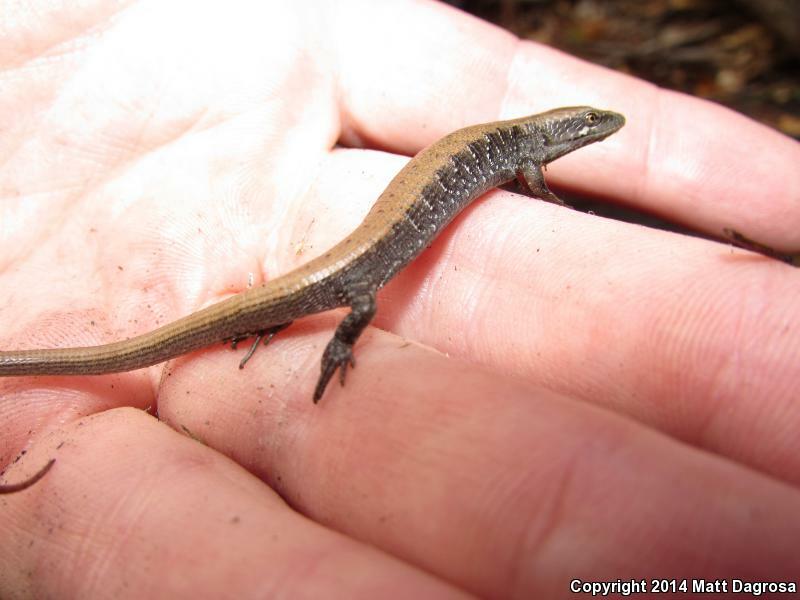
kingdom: Animalia
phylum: Chordata
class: Squamata
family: Anguidae
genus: Elgaria
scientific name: Elgaria multicarinata
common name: Southern alligator lizard
